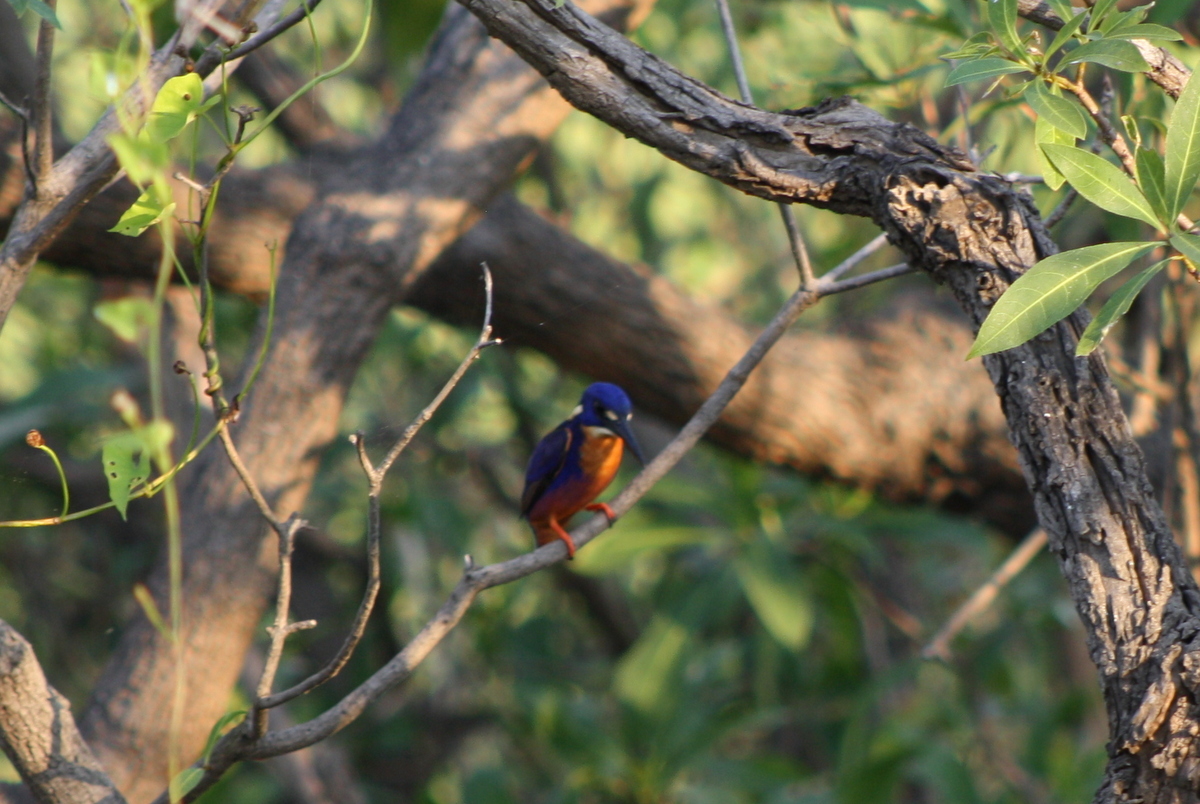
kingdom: Animalia
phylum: Chordata
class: Aves
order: Coraciiformes
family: Alcedinidae
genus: Ceyx
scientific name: Ceyx azureus
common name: Azure kingfisher
